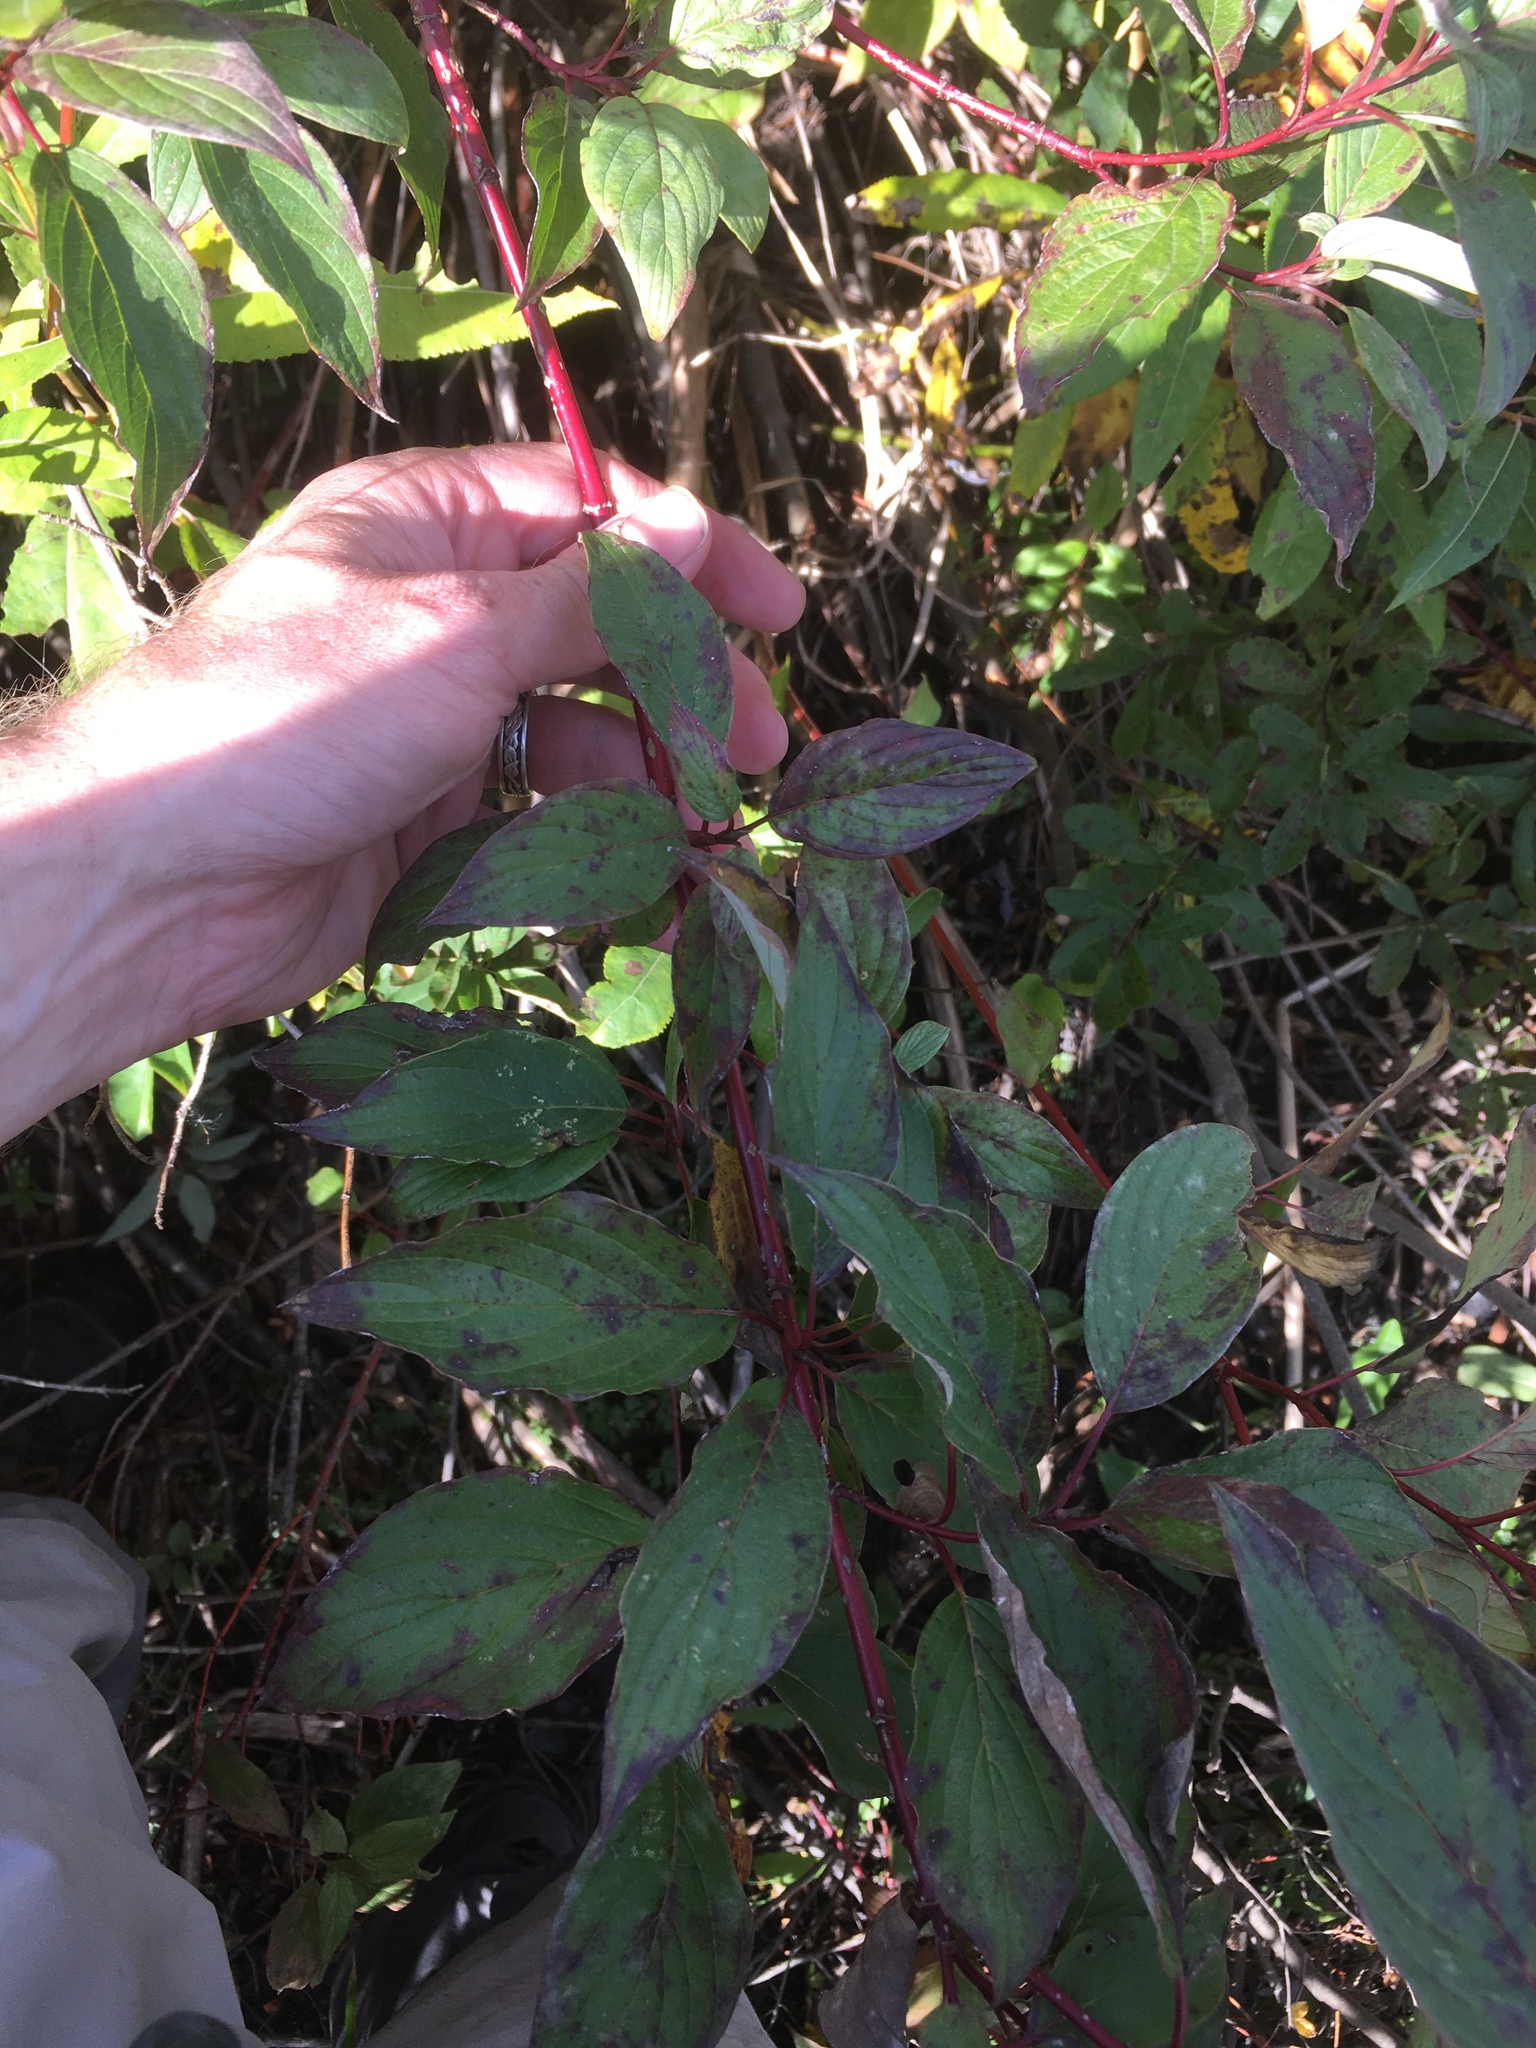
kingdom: Plantae
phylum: Tracheophyta
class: Magnoliopsida
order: Cornales
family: Cornaceae
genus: Cornus
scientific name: Cornus sericea
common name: Red-osier dogwood
